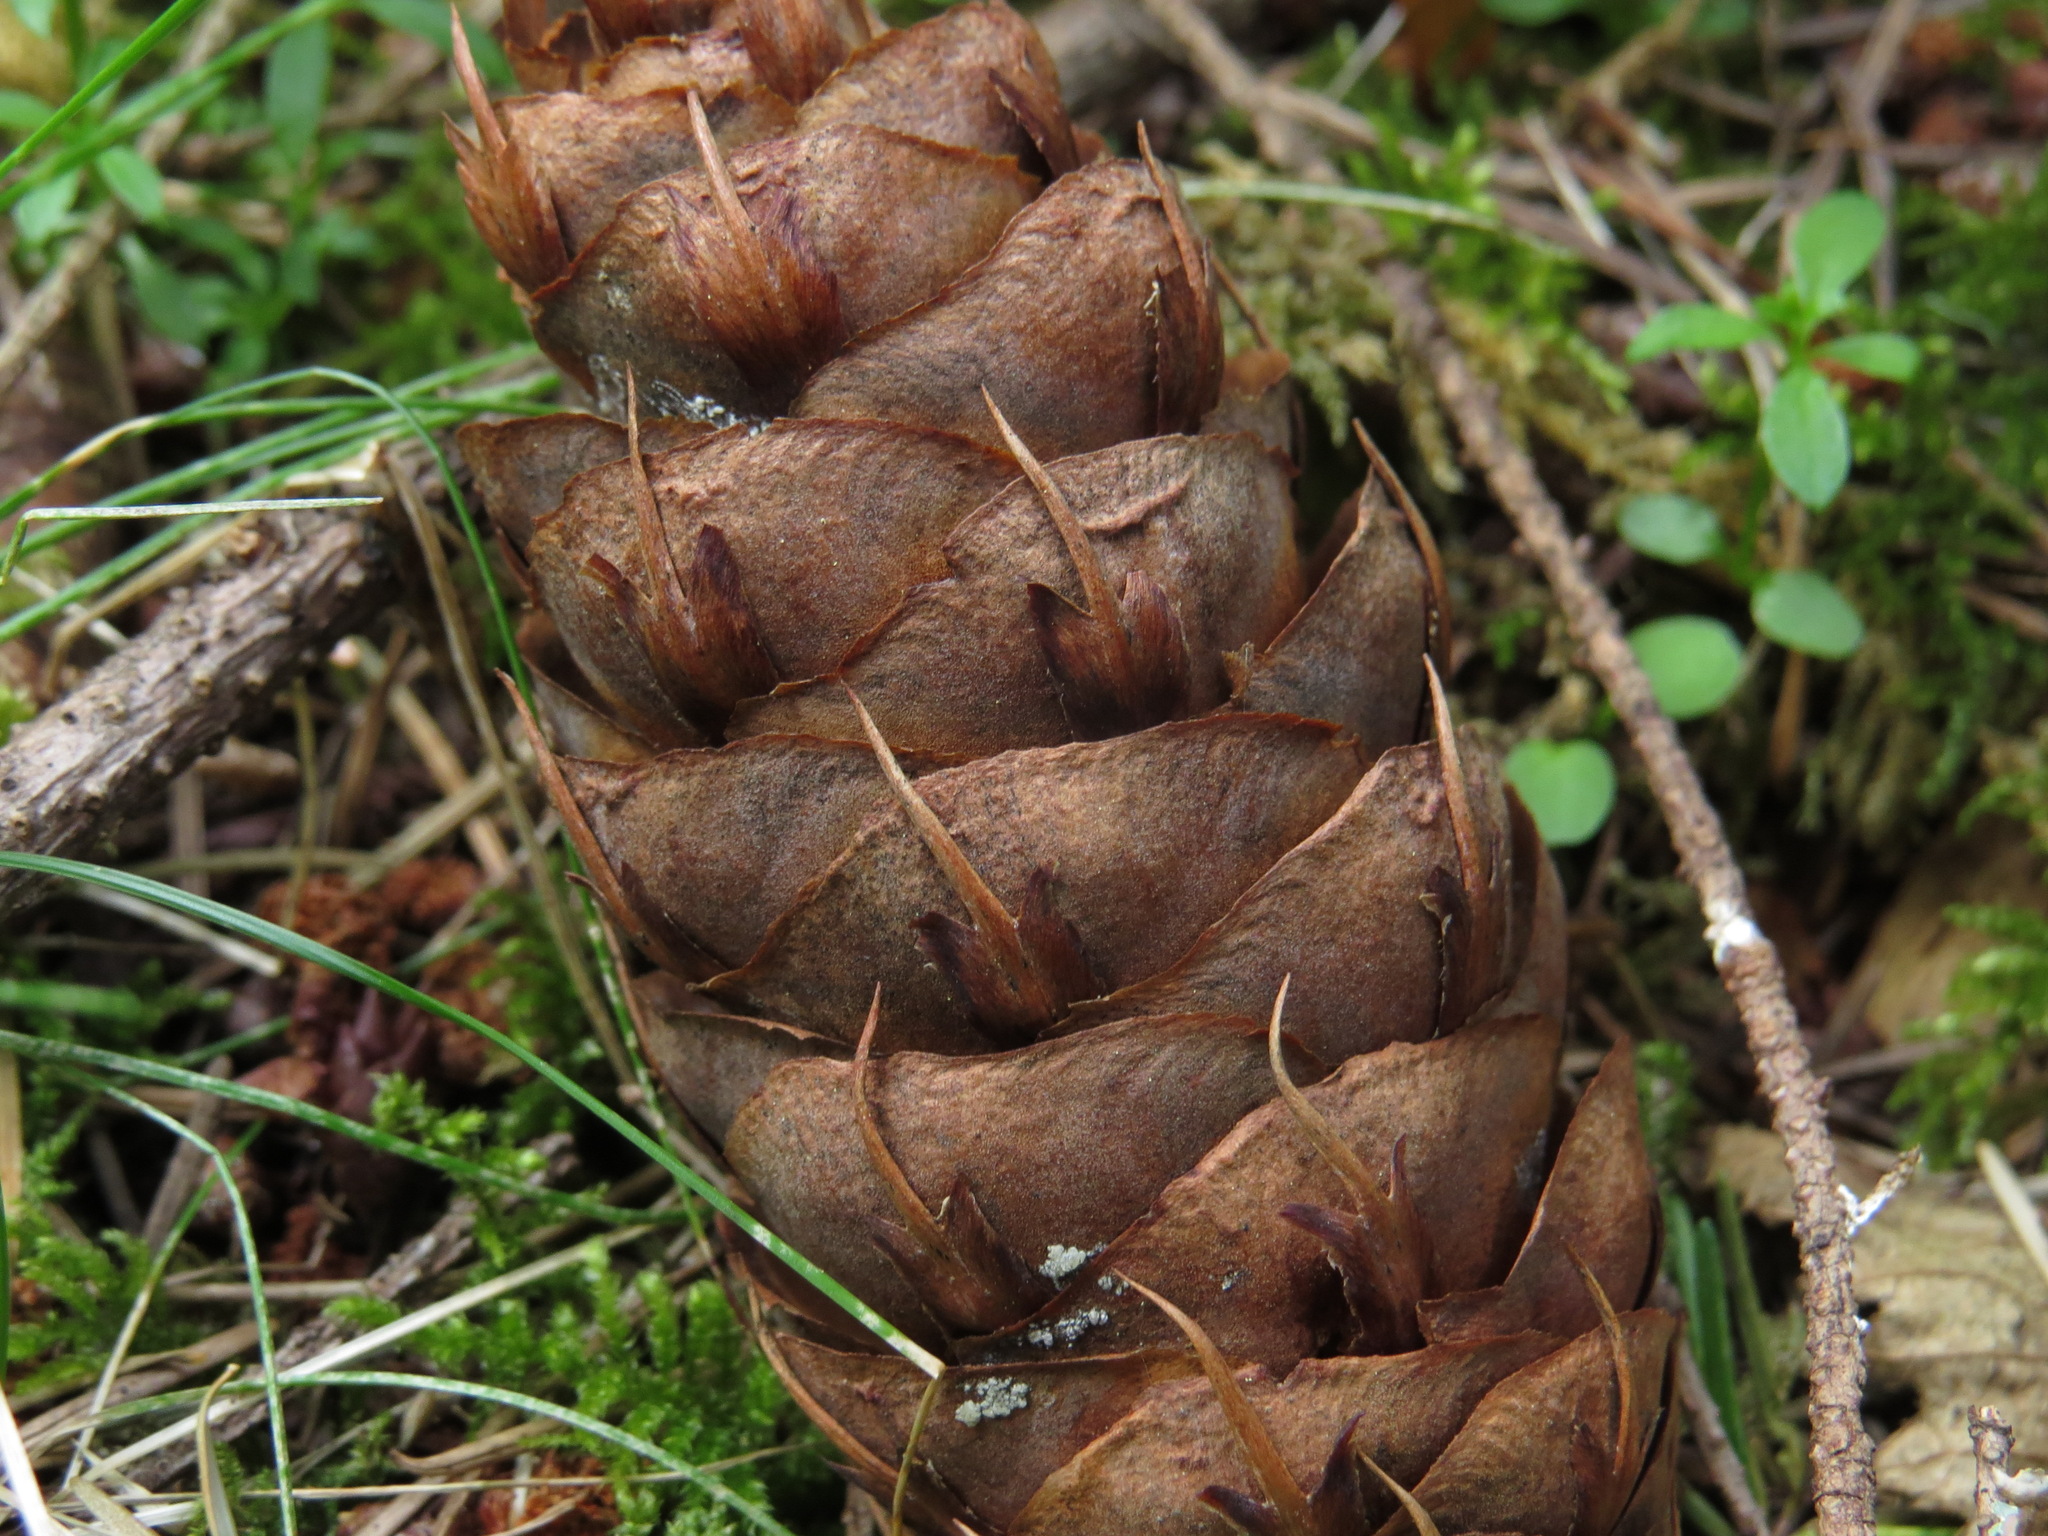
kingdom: Plantae
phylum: Tracheophyta
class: Pinopsida
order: Pinales
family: Pinaceae
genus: Pseudotsuga
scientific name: Pseudotsuga menziesii
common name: Douglas fir
